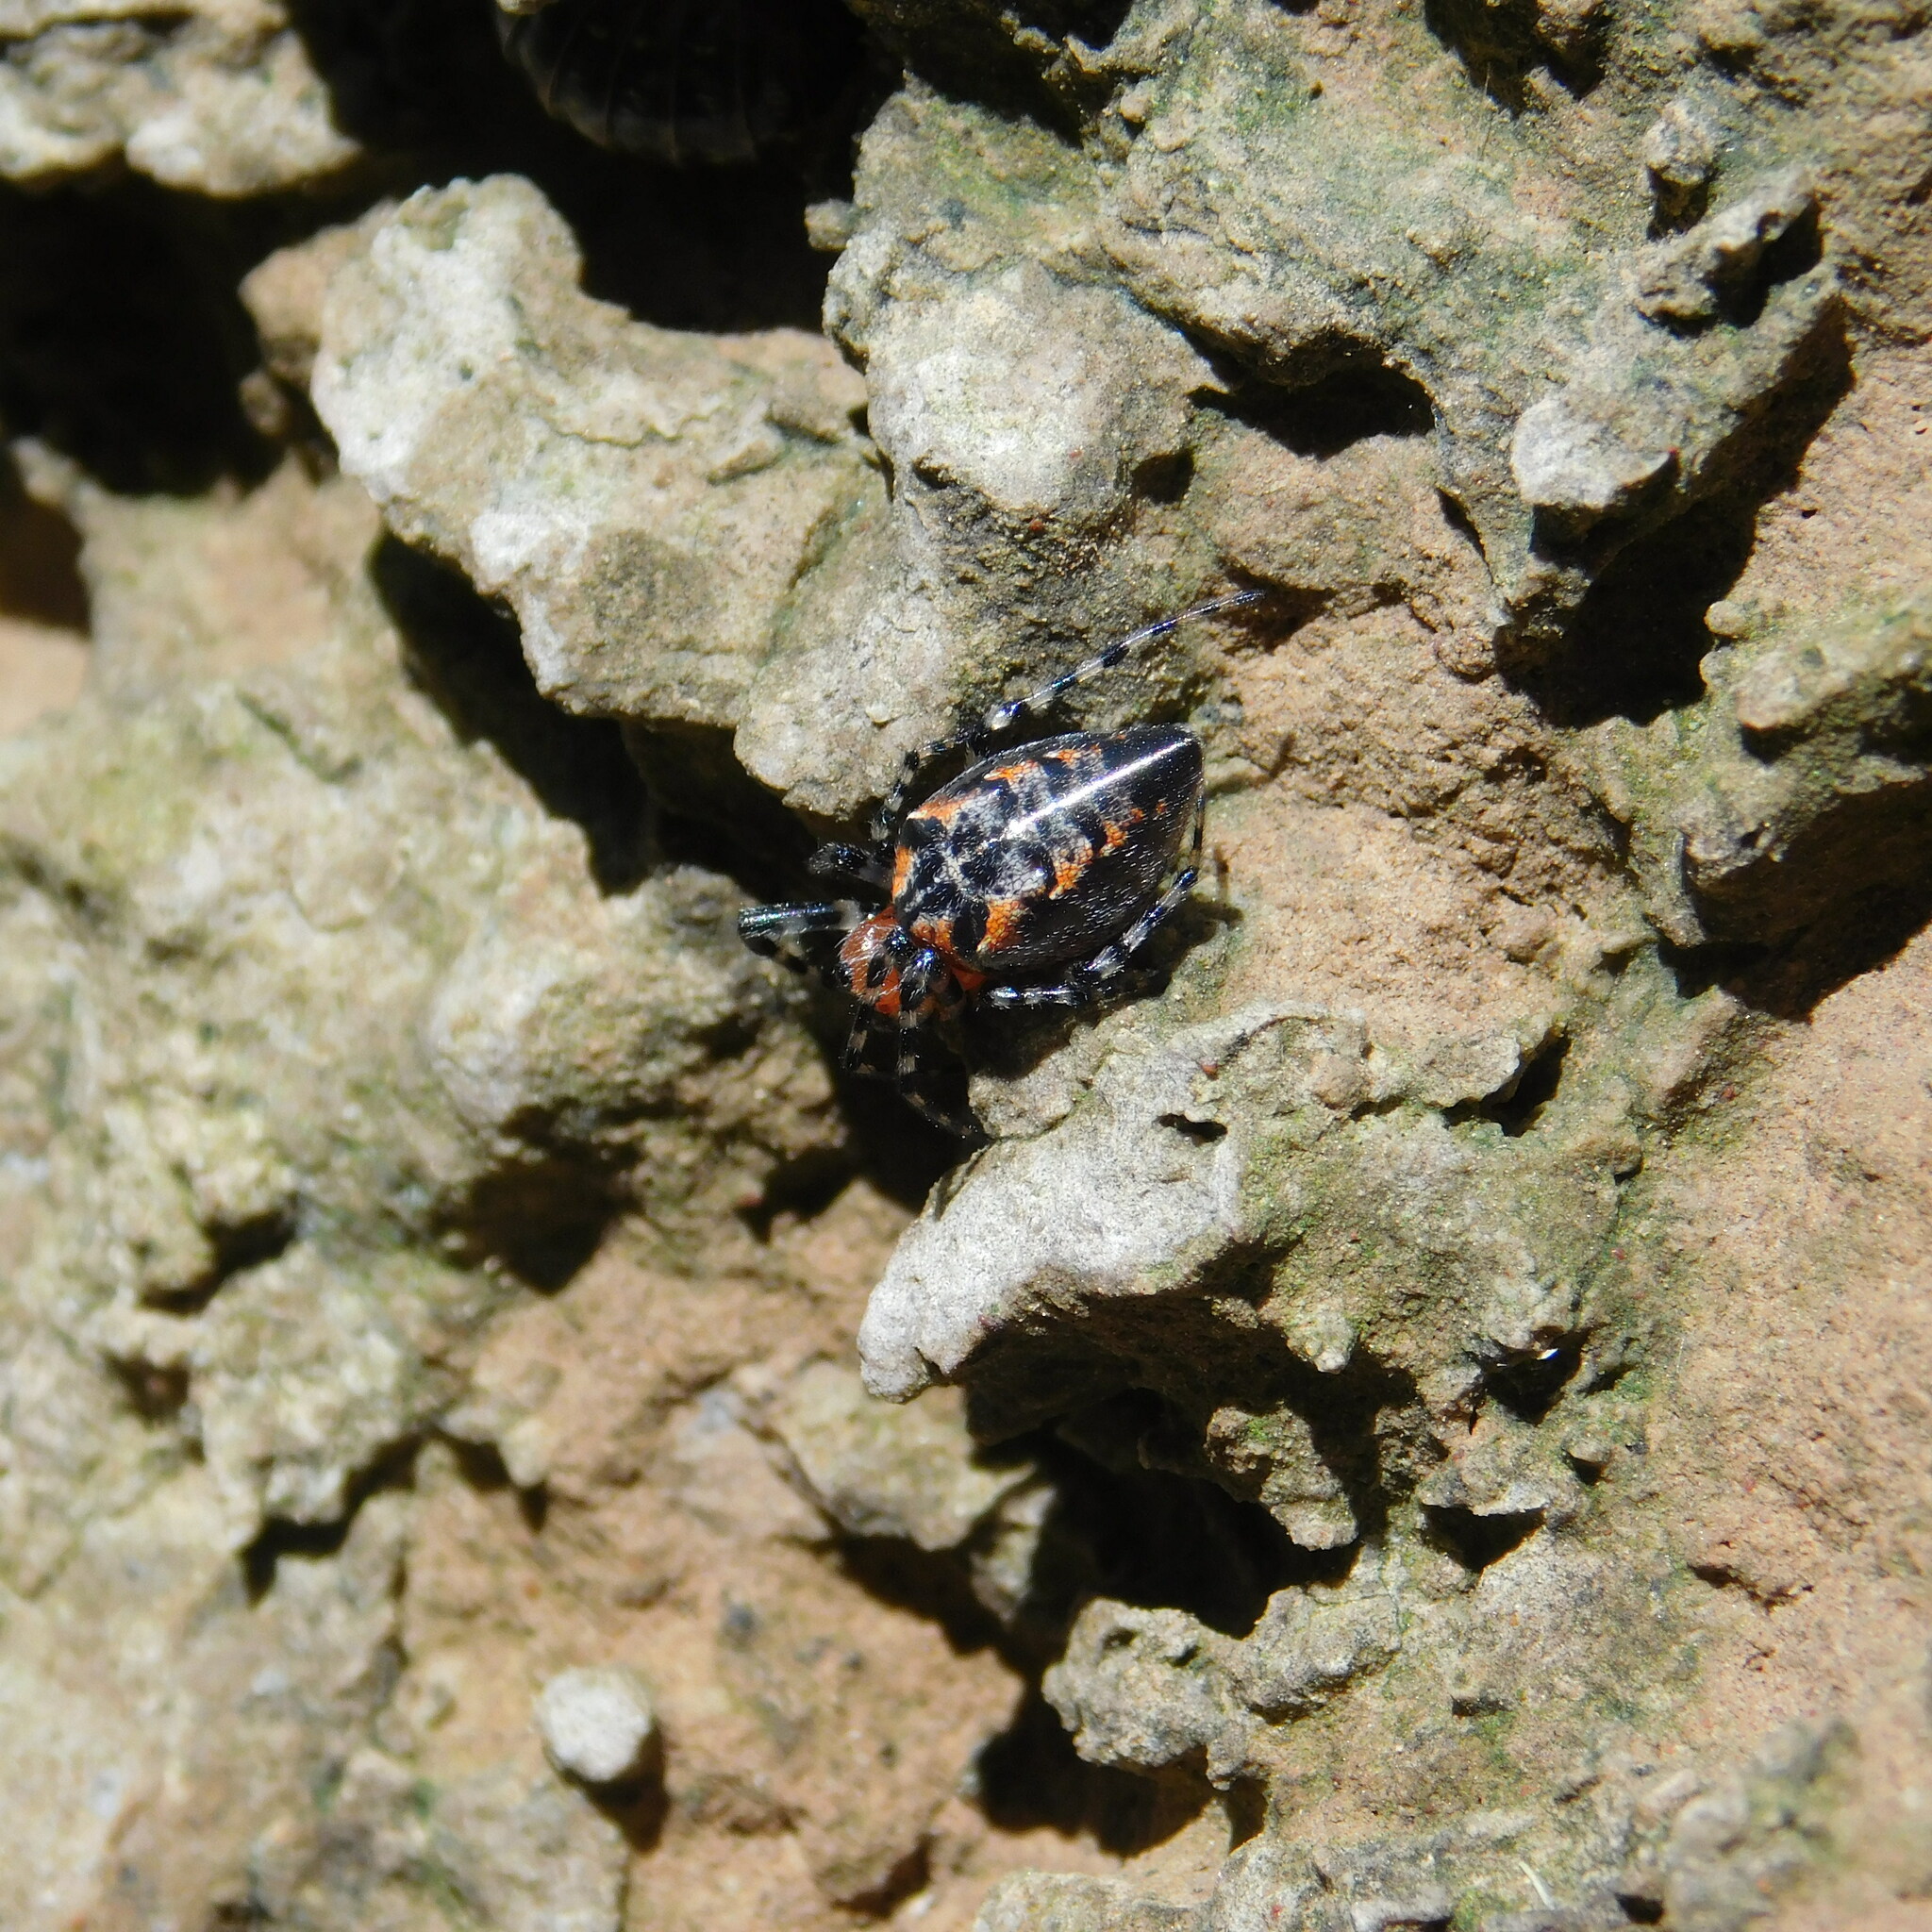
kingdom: Animalia
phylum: Arthropoda
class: Arachnida
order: Araneae
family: Araneidae
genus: Alpaida
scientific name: Alpaida gallardoi
